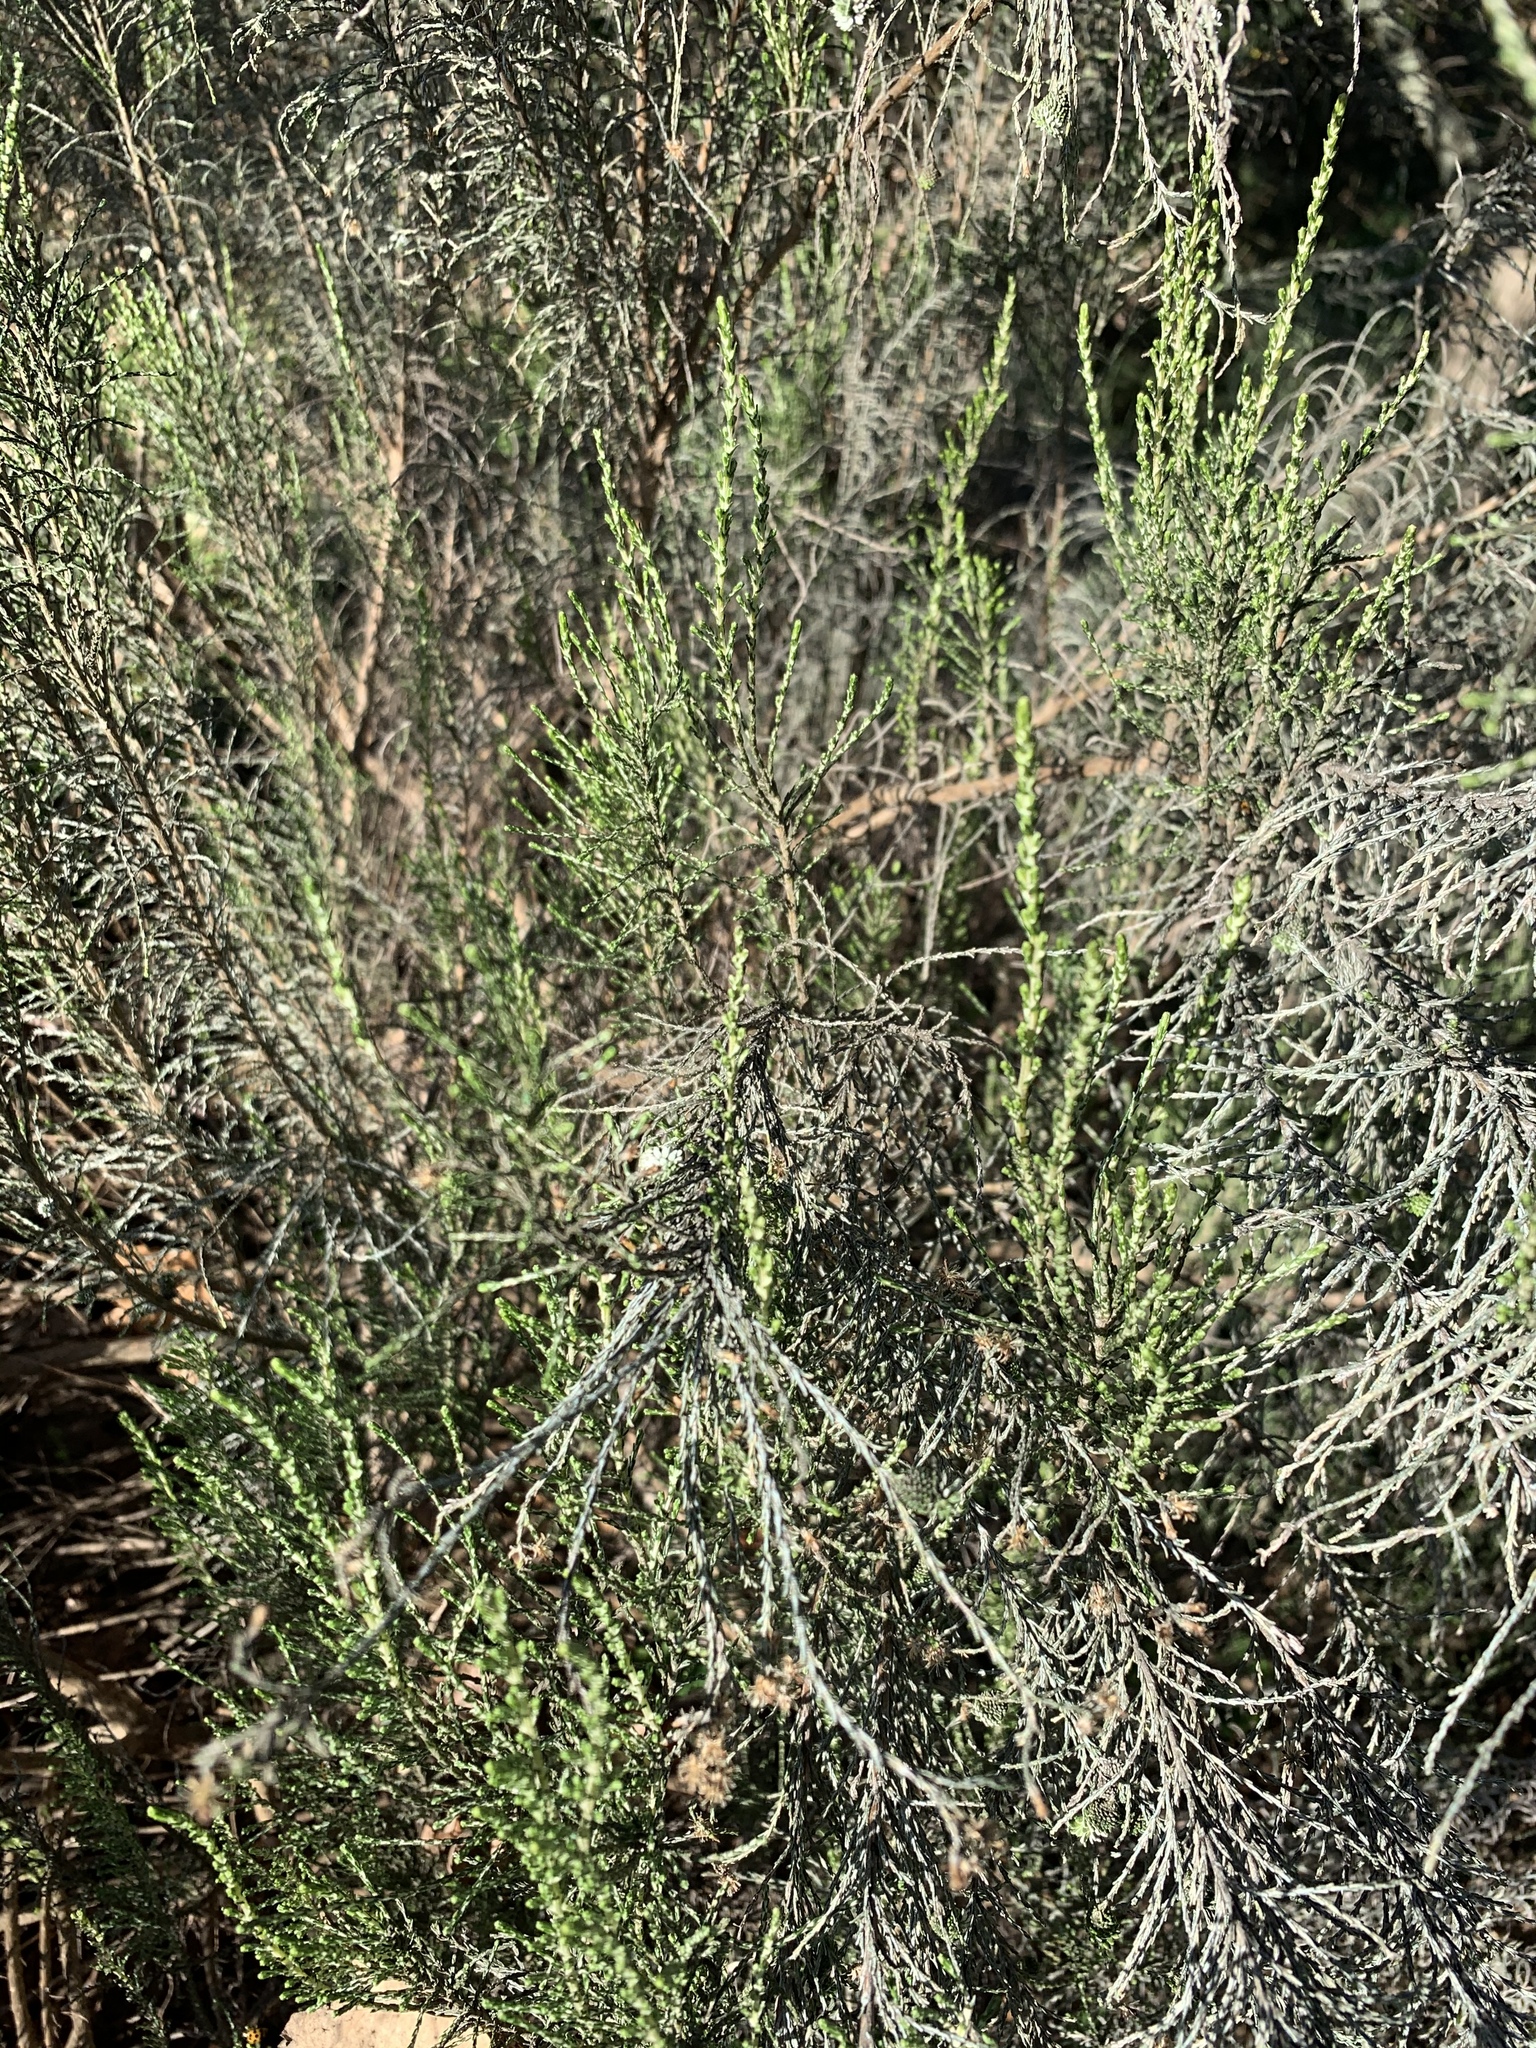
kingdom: Plantae
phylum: Tracheophyta
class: Magnoliopsida
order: Asterales
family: Asteraceae
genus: Dicerothamnus
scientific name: Dicerothamnus rhinocerotis
